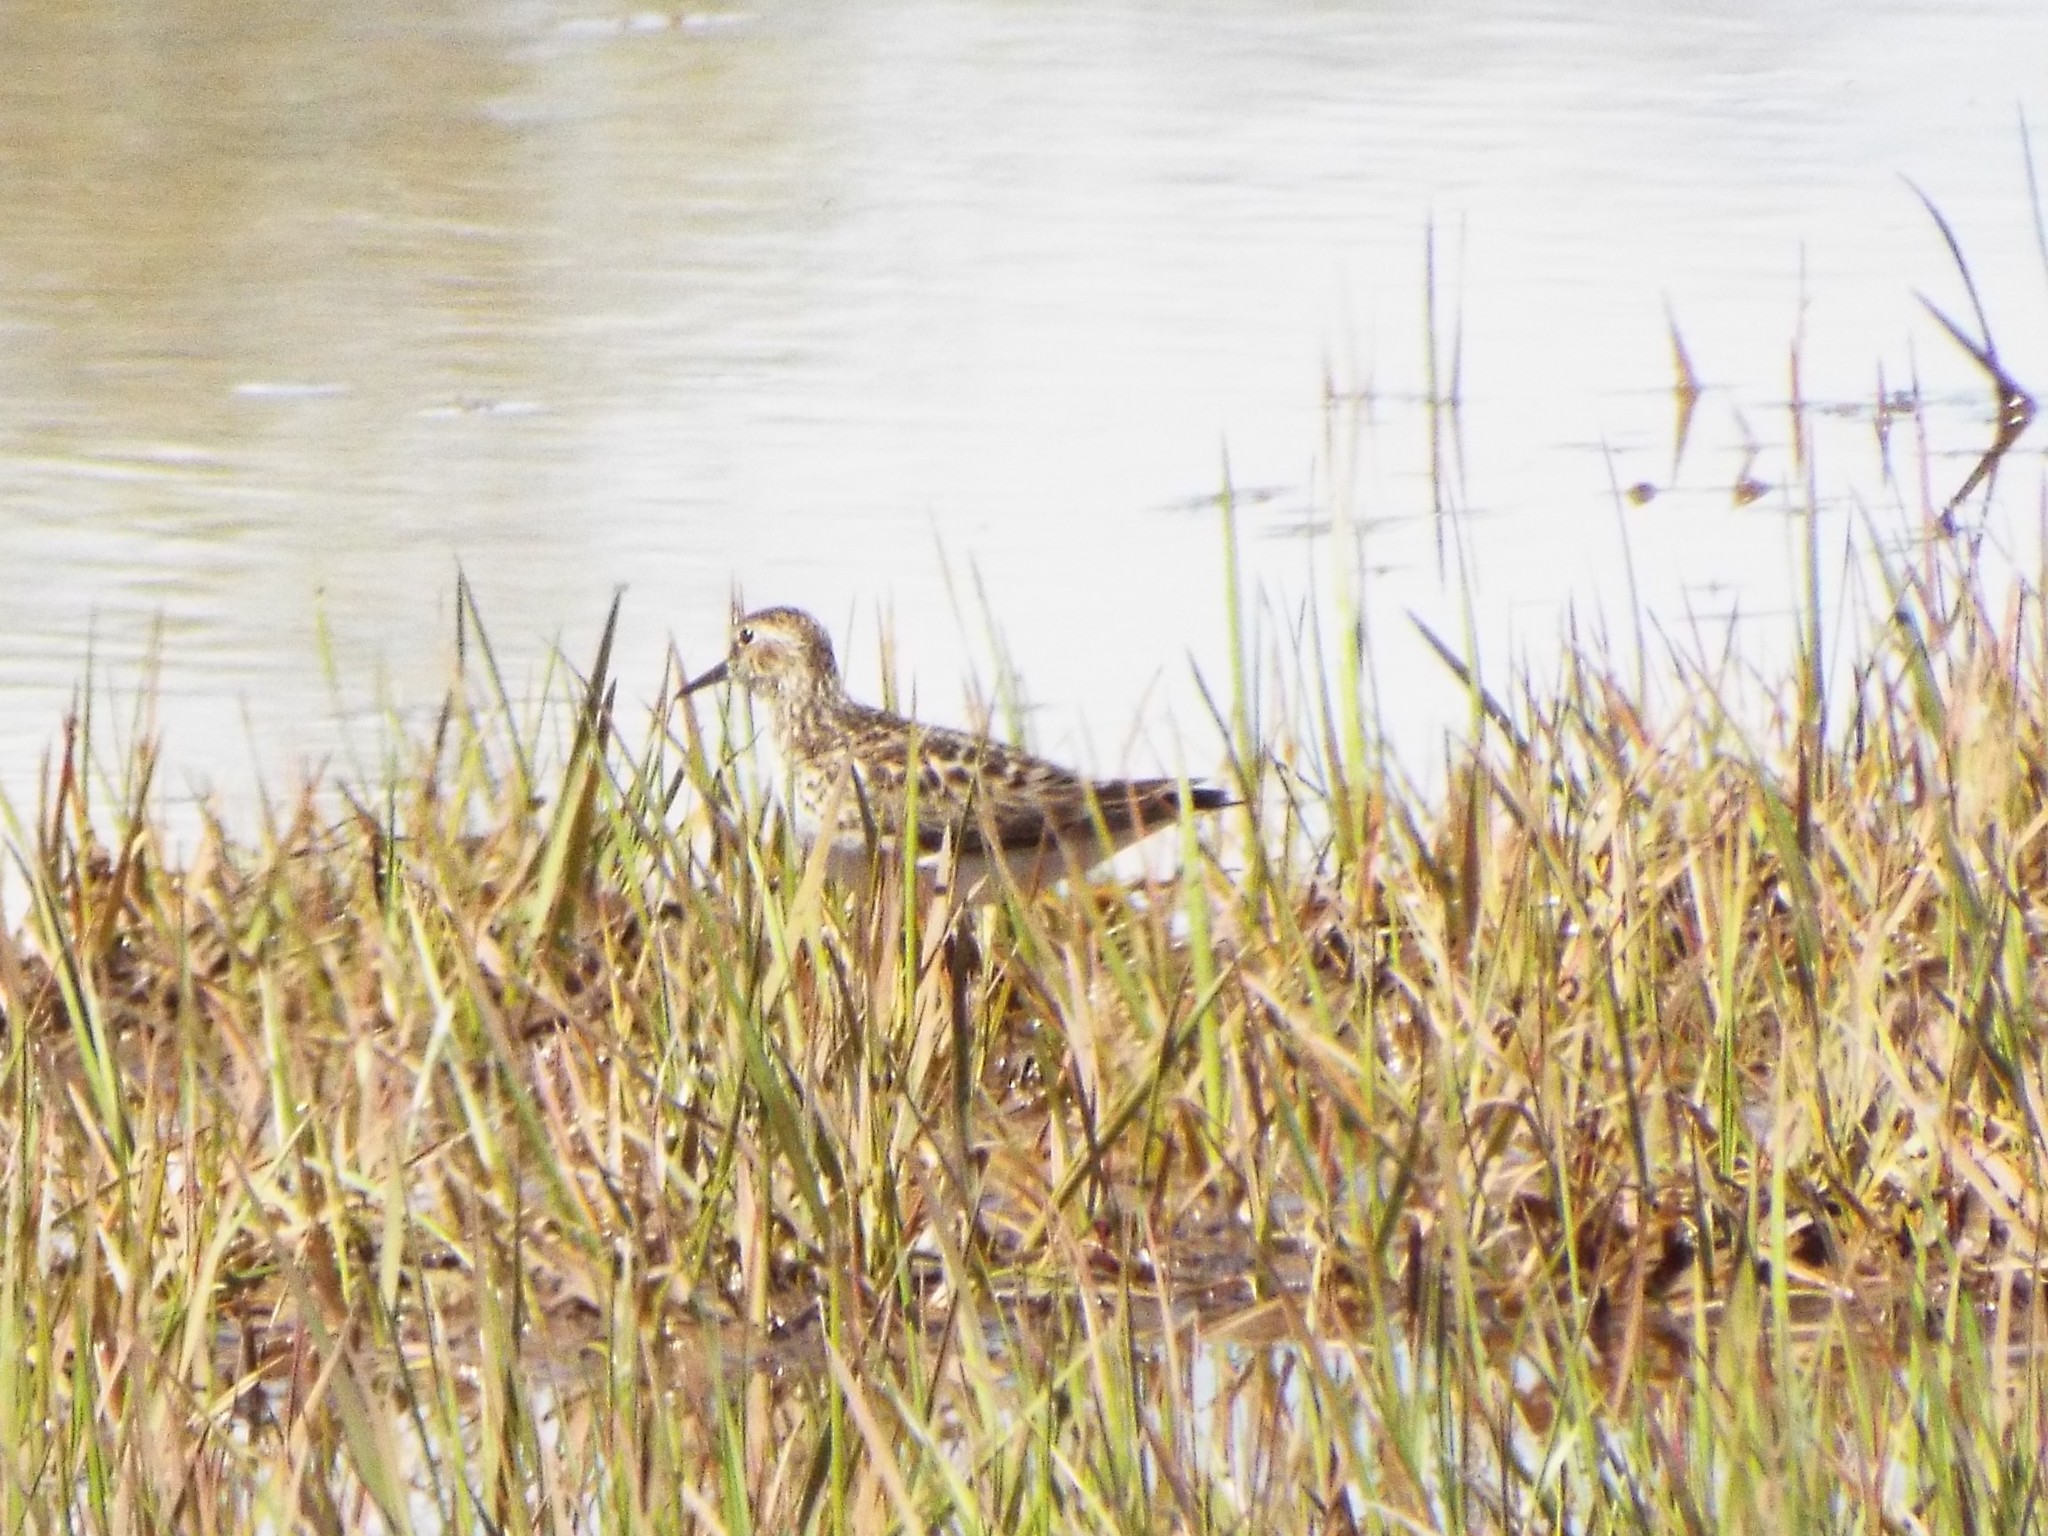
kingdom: Animalia
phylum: Chordata
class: Aves
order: Charadriiformes
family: Scolopacidae
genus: Calidris
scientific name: Calidris minutilla
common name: Least sandpiper
